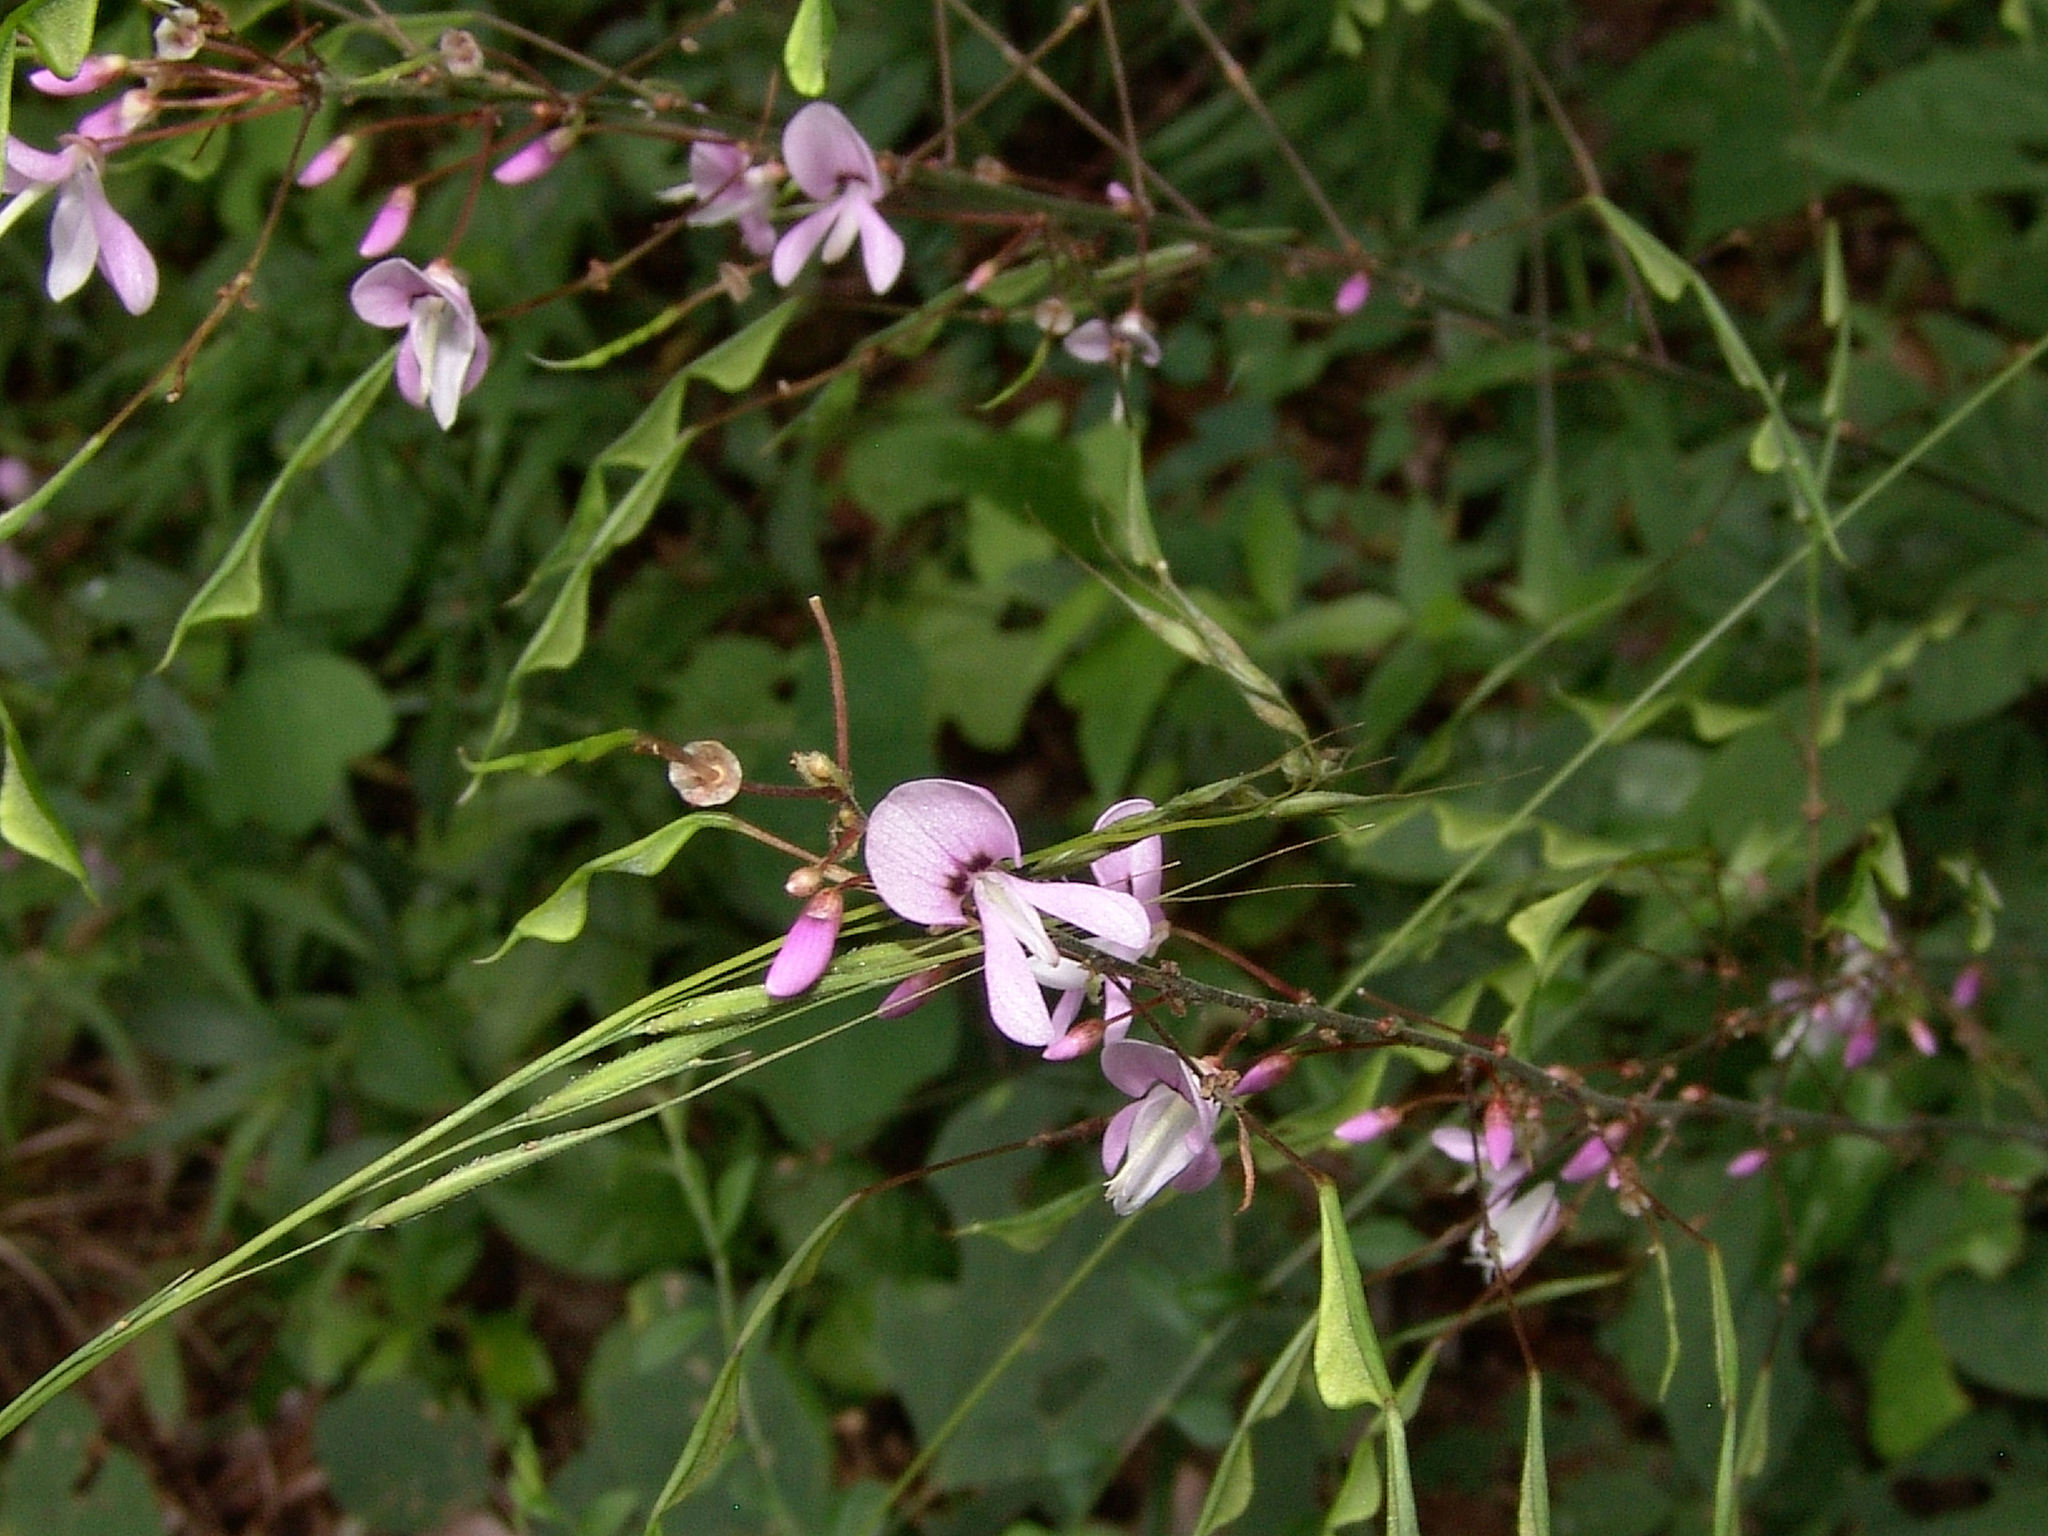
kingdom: Plantae
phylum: Tracheophyta
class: Magnoliopsida
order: Fabales
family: Fabaceae
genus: Hylodesmum
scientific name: Hylodesmum nudiflorum
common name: Bare-stemmed tick-trefoil
